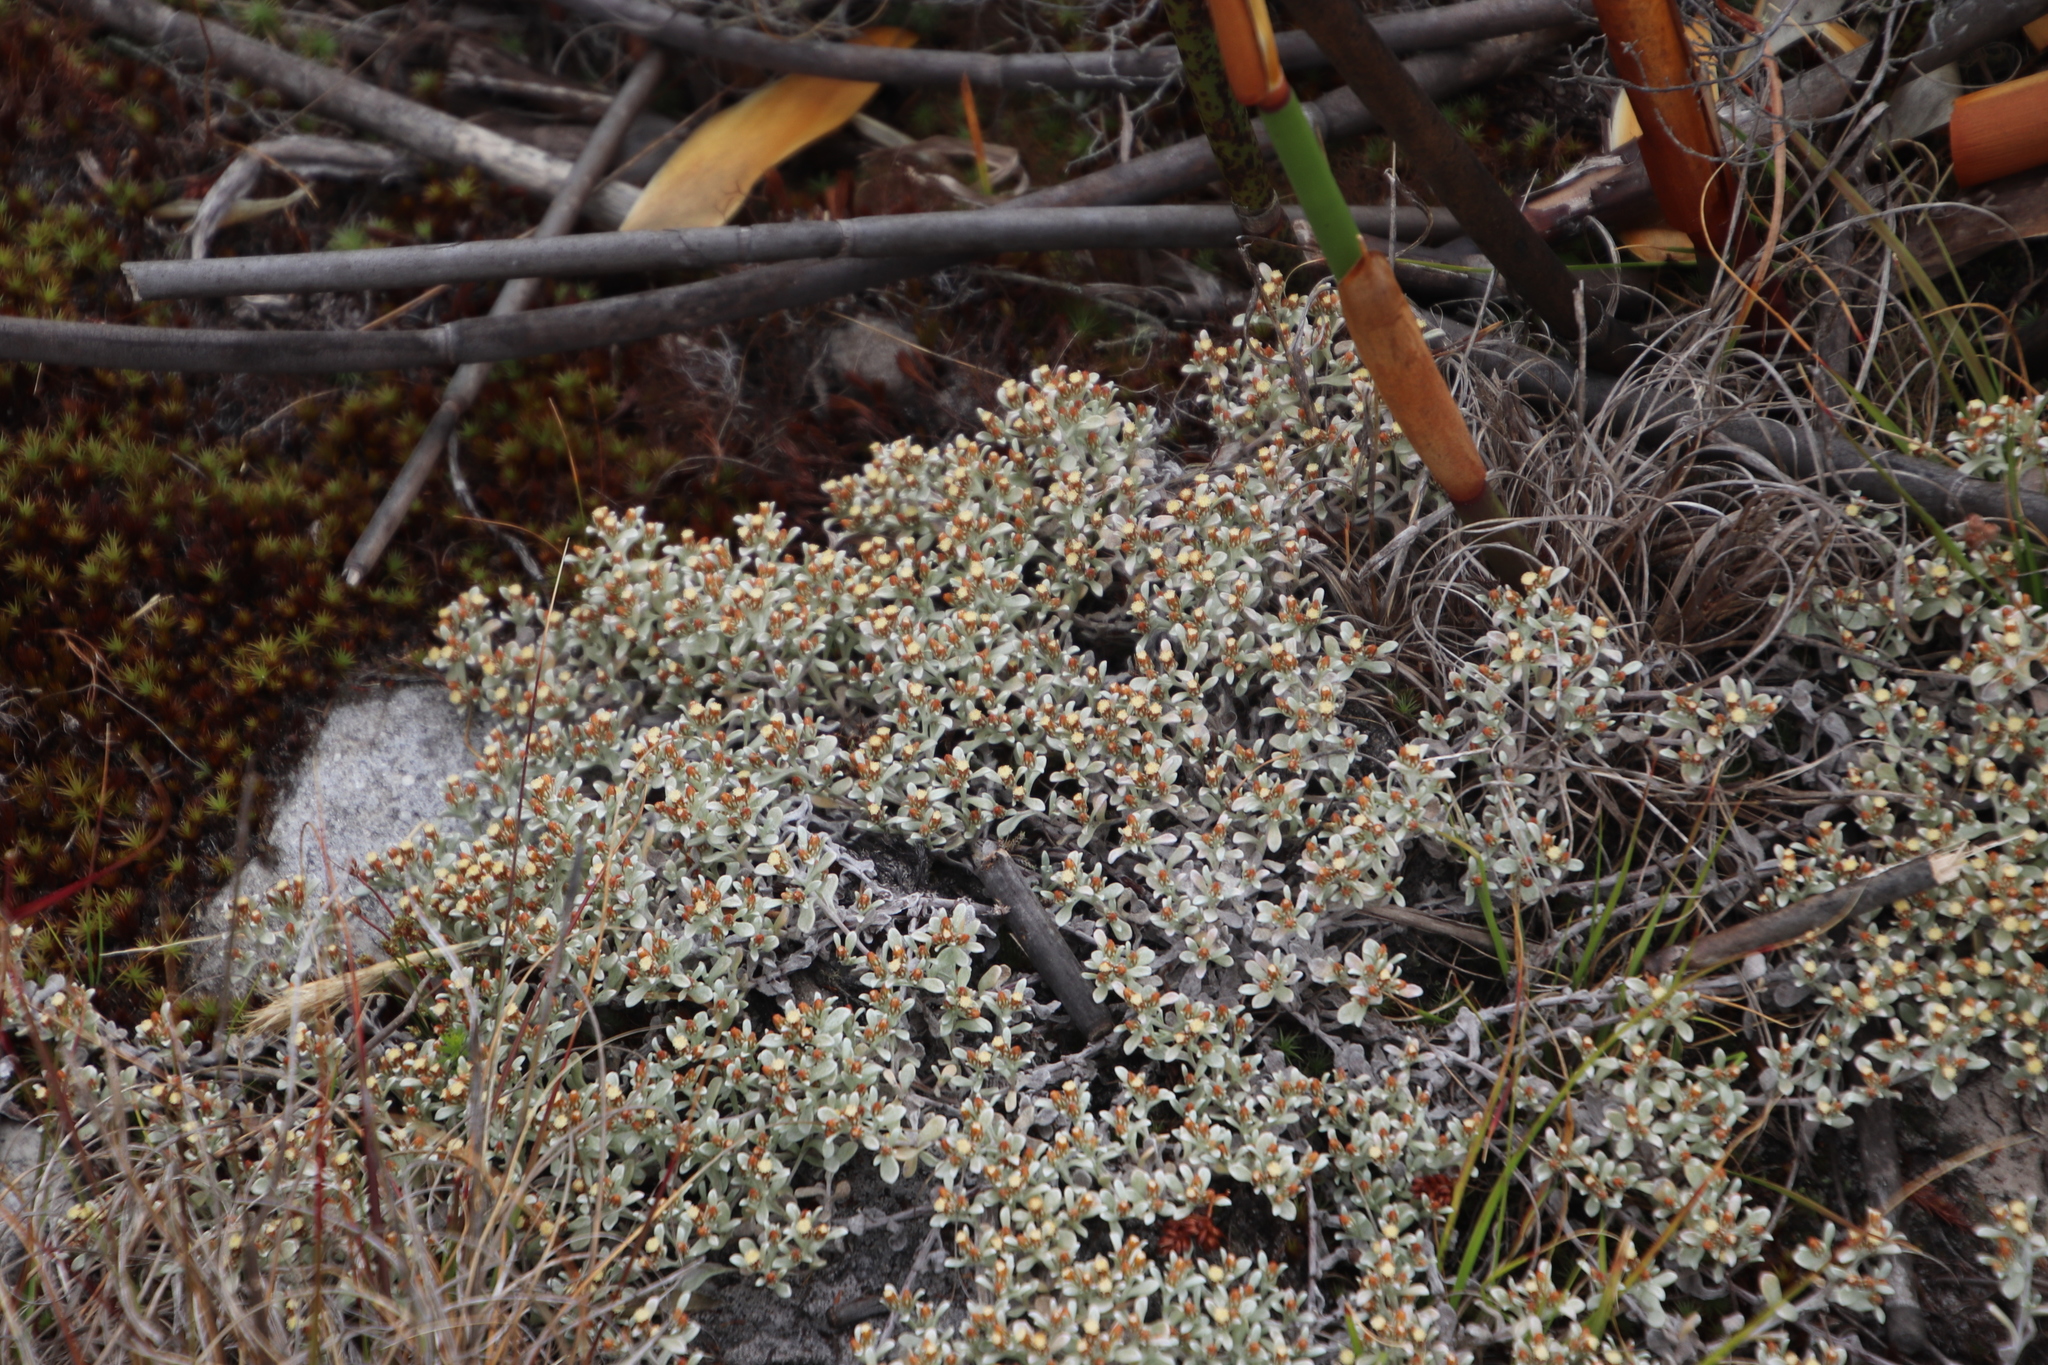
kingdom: Plantae
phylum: Tracheophyta
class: Magnoliopsida
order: Asterales
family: Asteraceae
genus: Helichrysum
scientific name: Helichrysum tinctum
